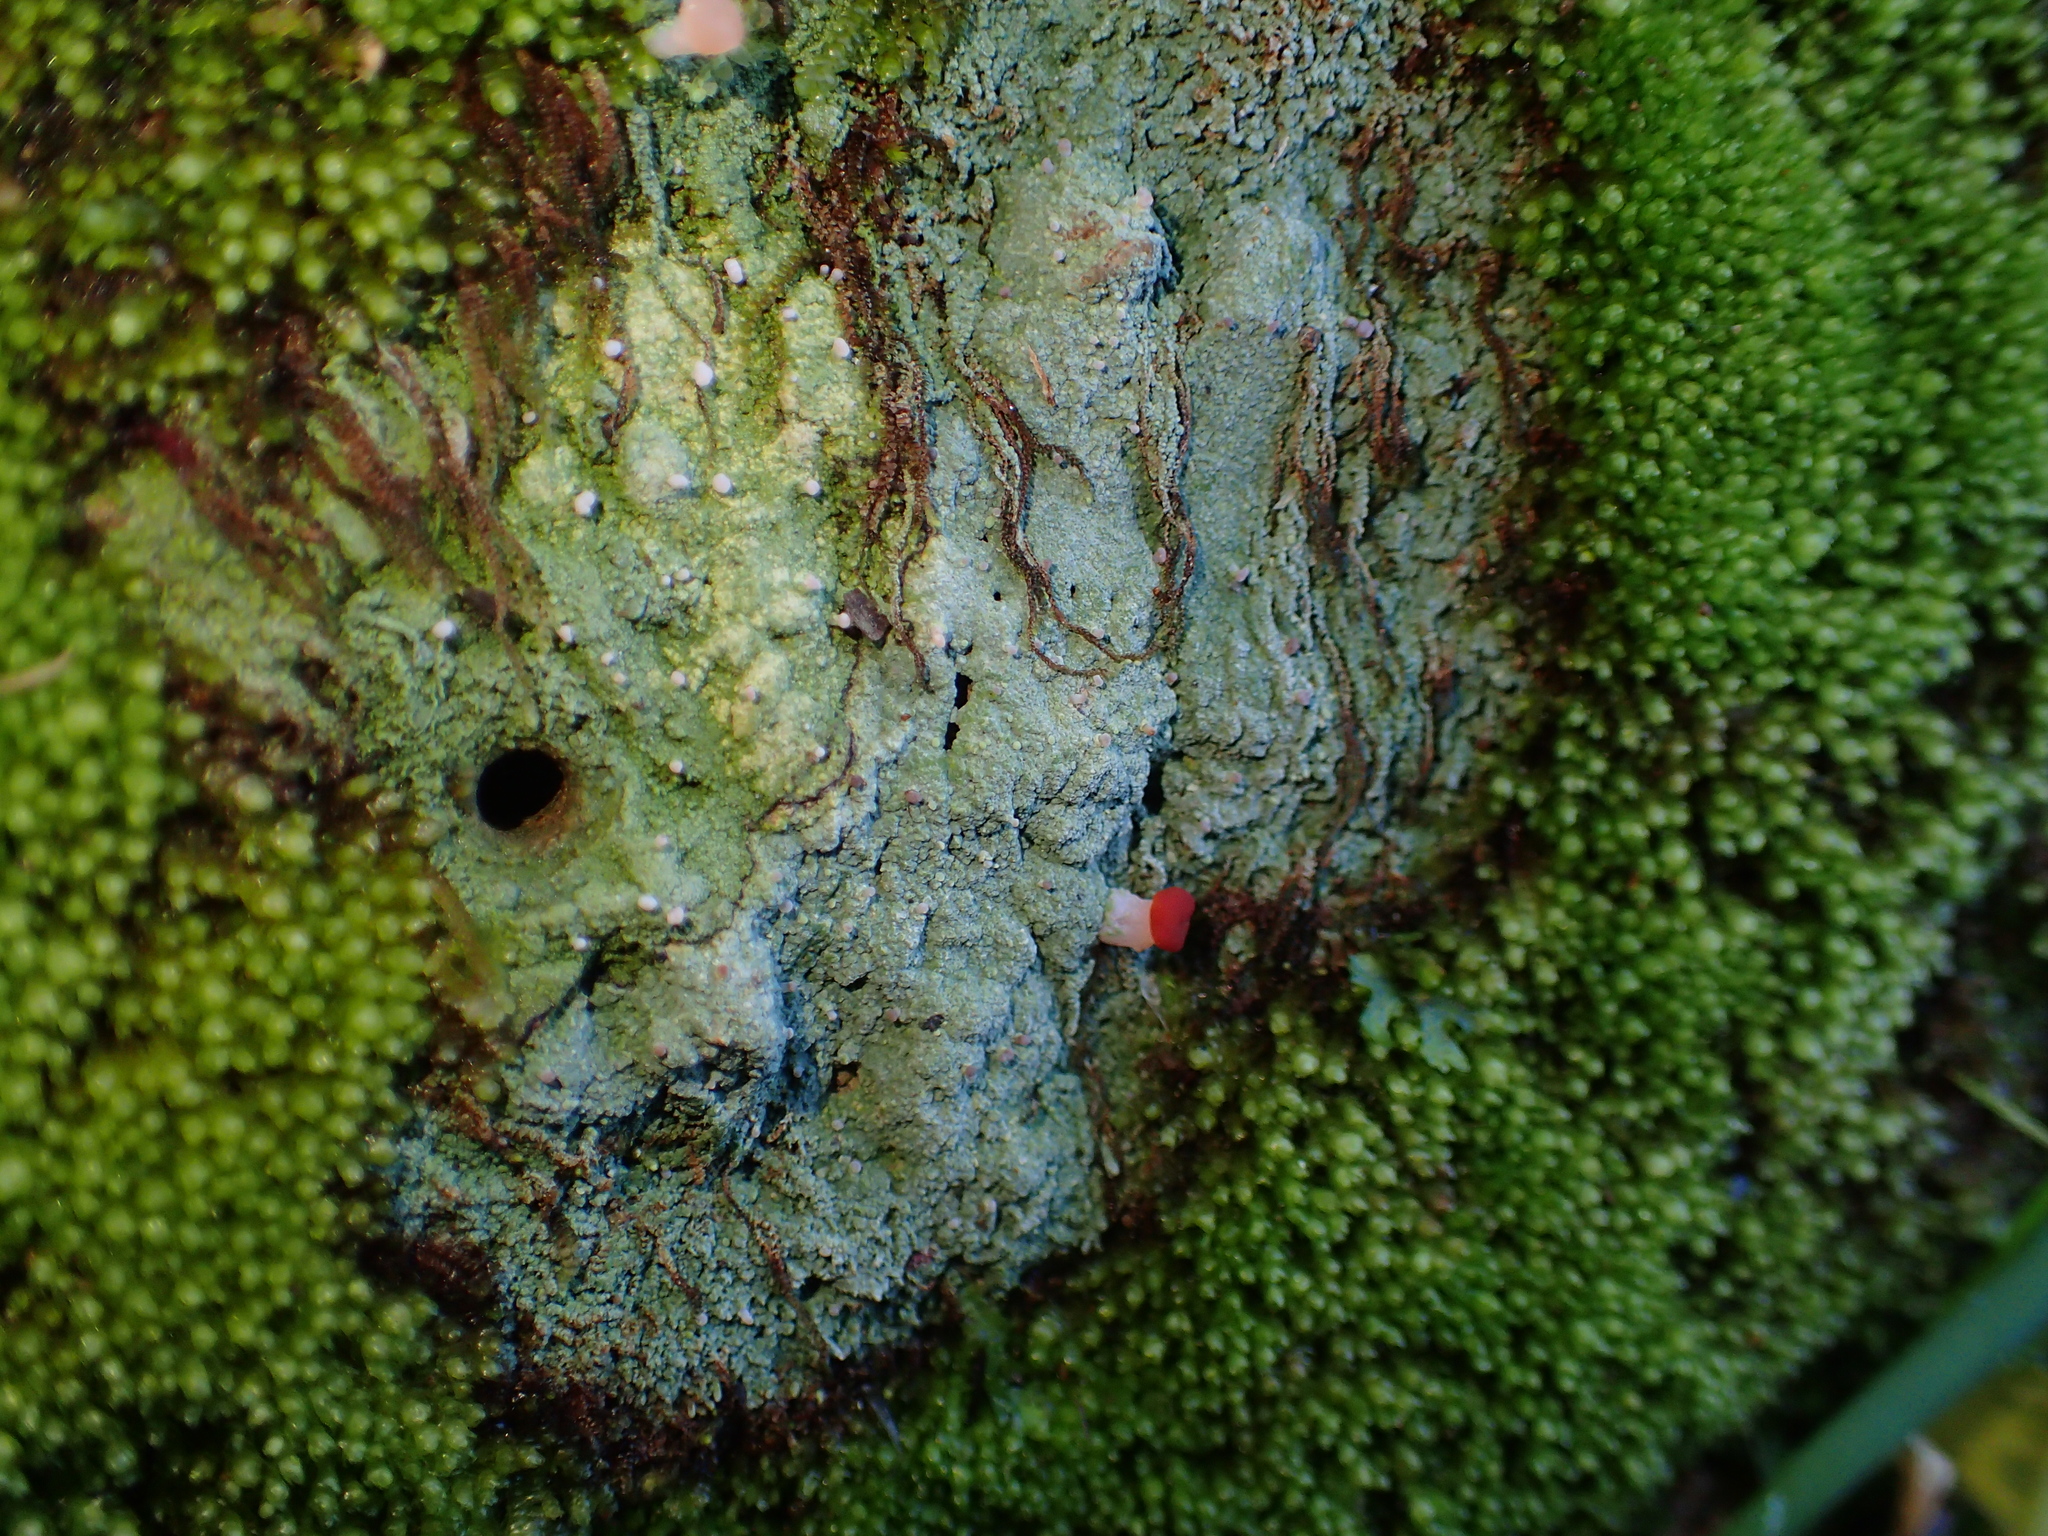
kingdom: Fungi
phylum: Ascomycota
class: Lecanoromycetes
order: Baeomycetales
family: Baeomycetaceae
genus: Baeomyces
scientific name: Baeomyces heteromorphus
